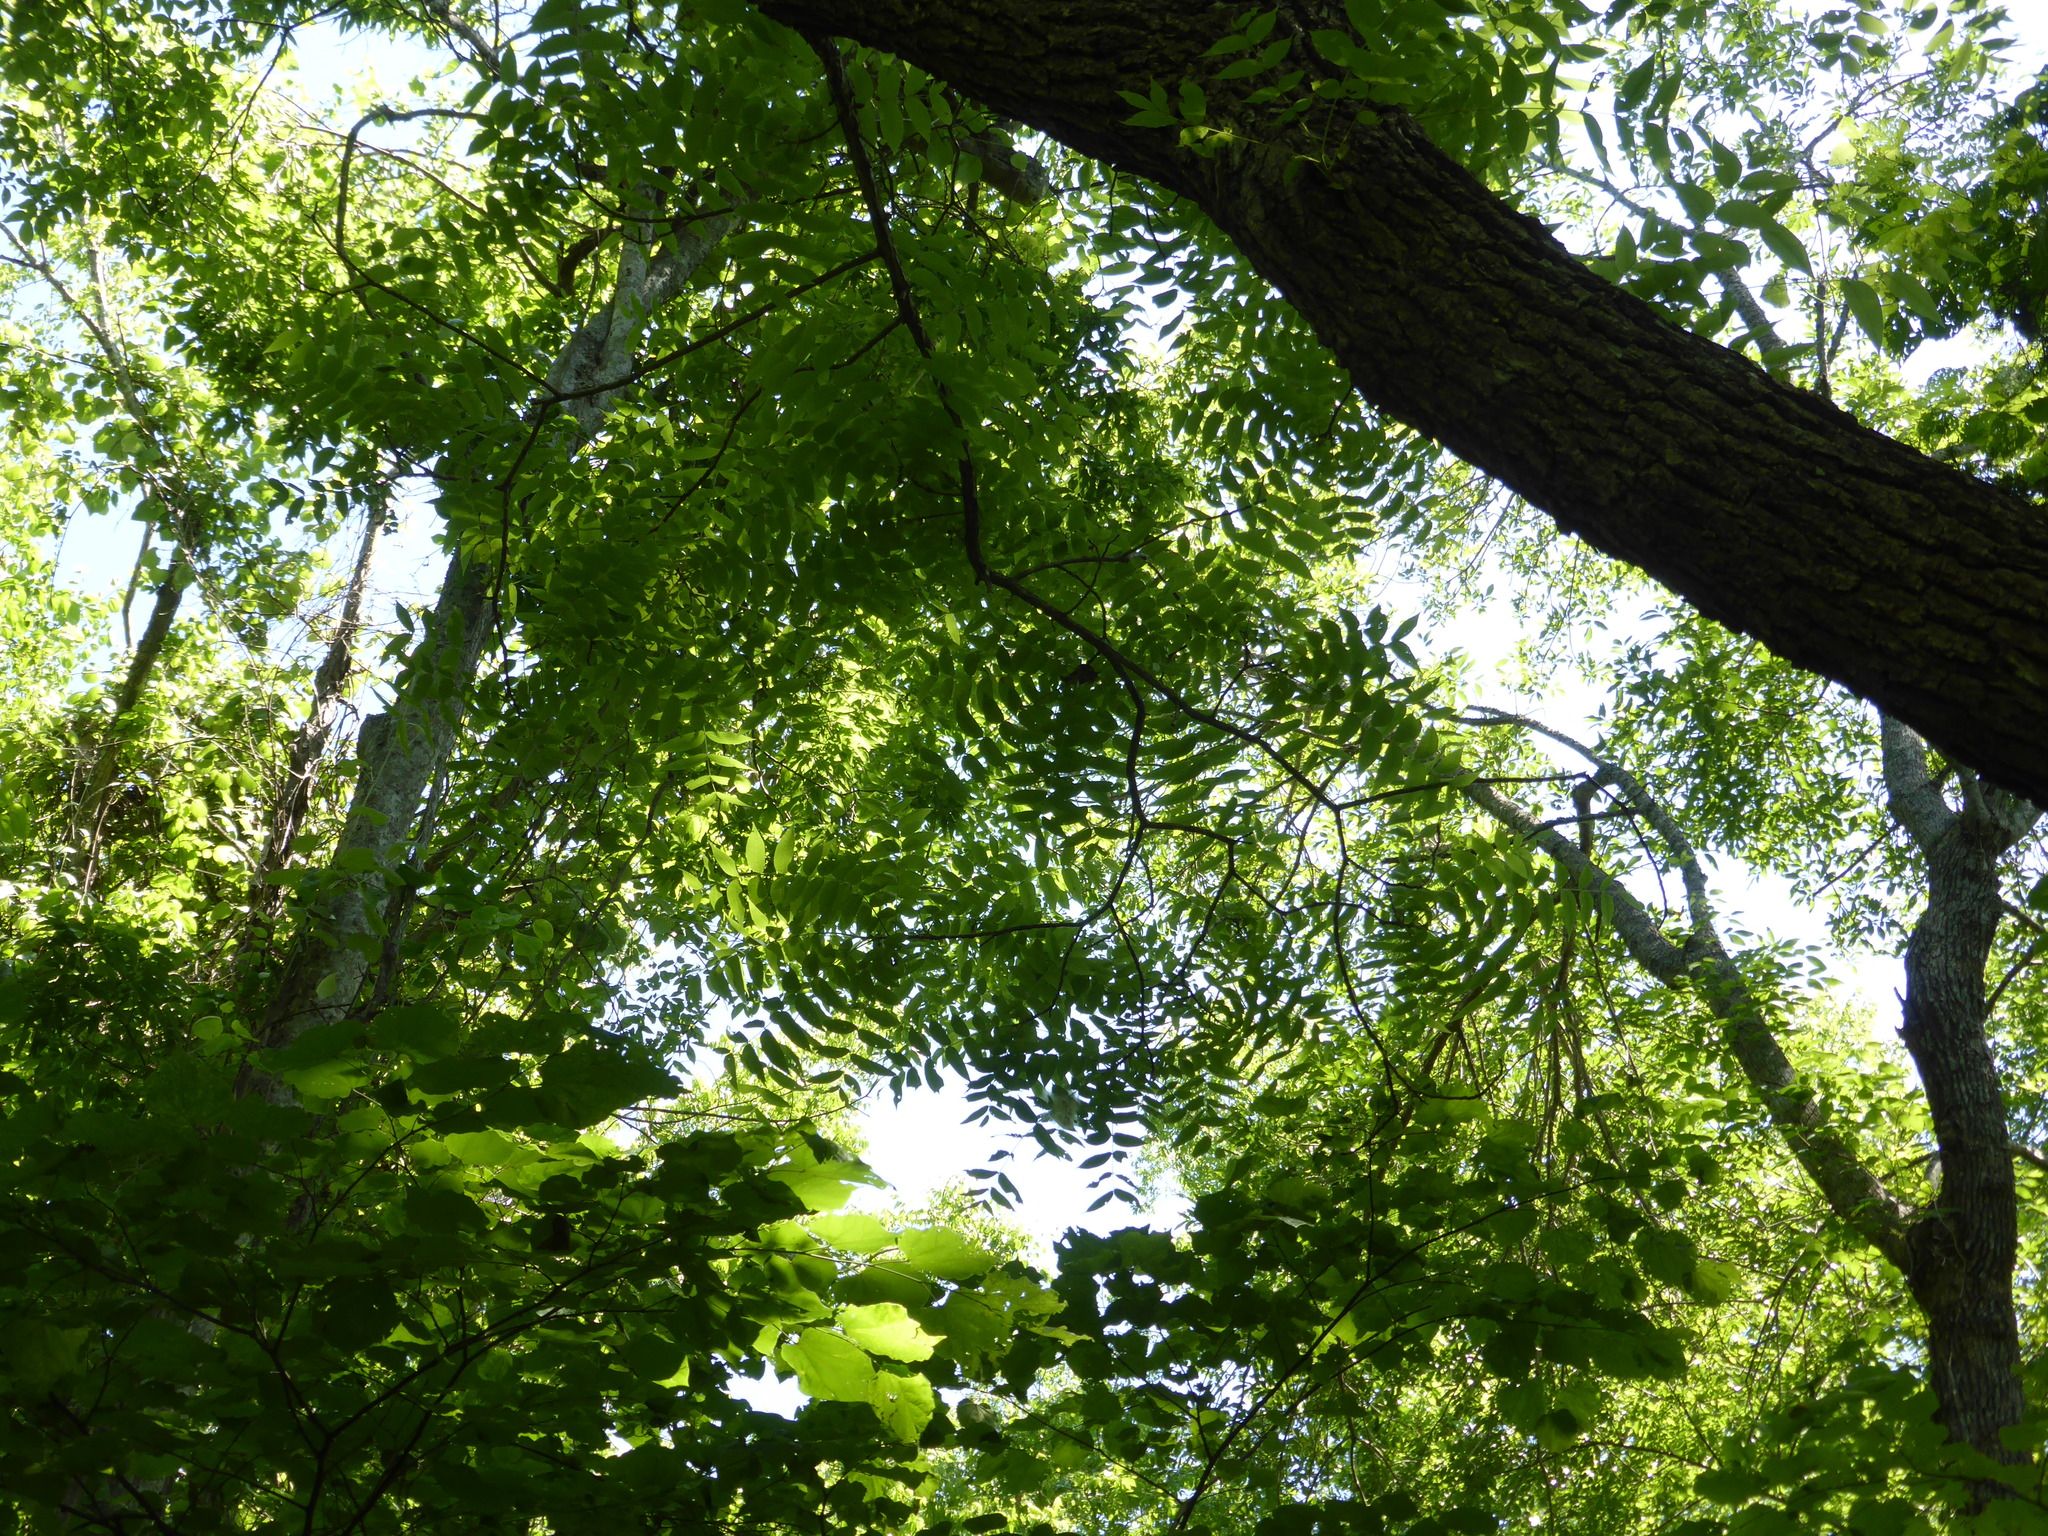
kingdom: Plantae
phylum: Tracheophyta
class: Magnoliopsida
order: Fagales
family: Juglandaceae
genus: Juglans
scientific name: Juglans nigra
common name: Black walnut
